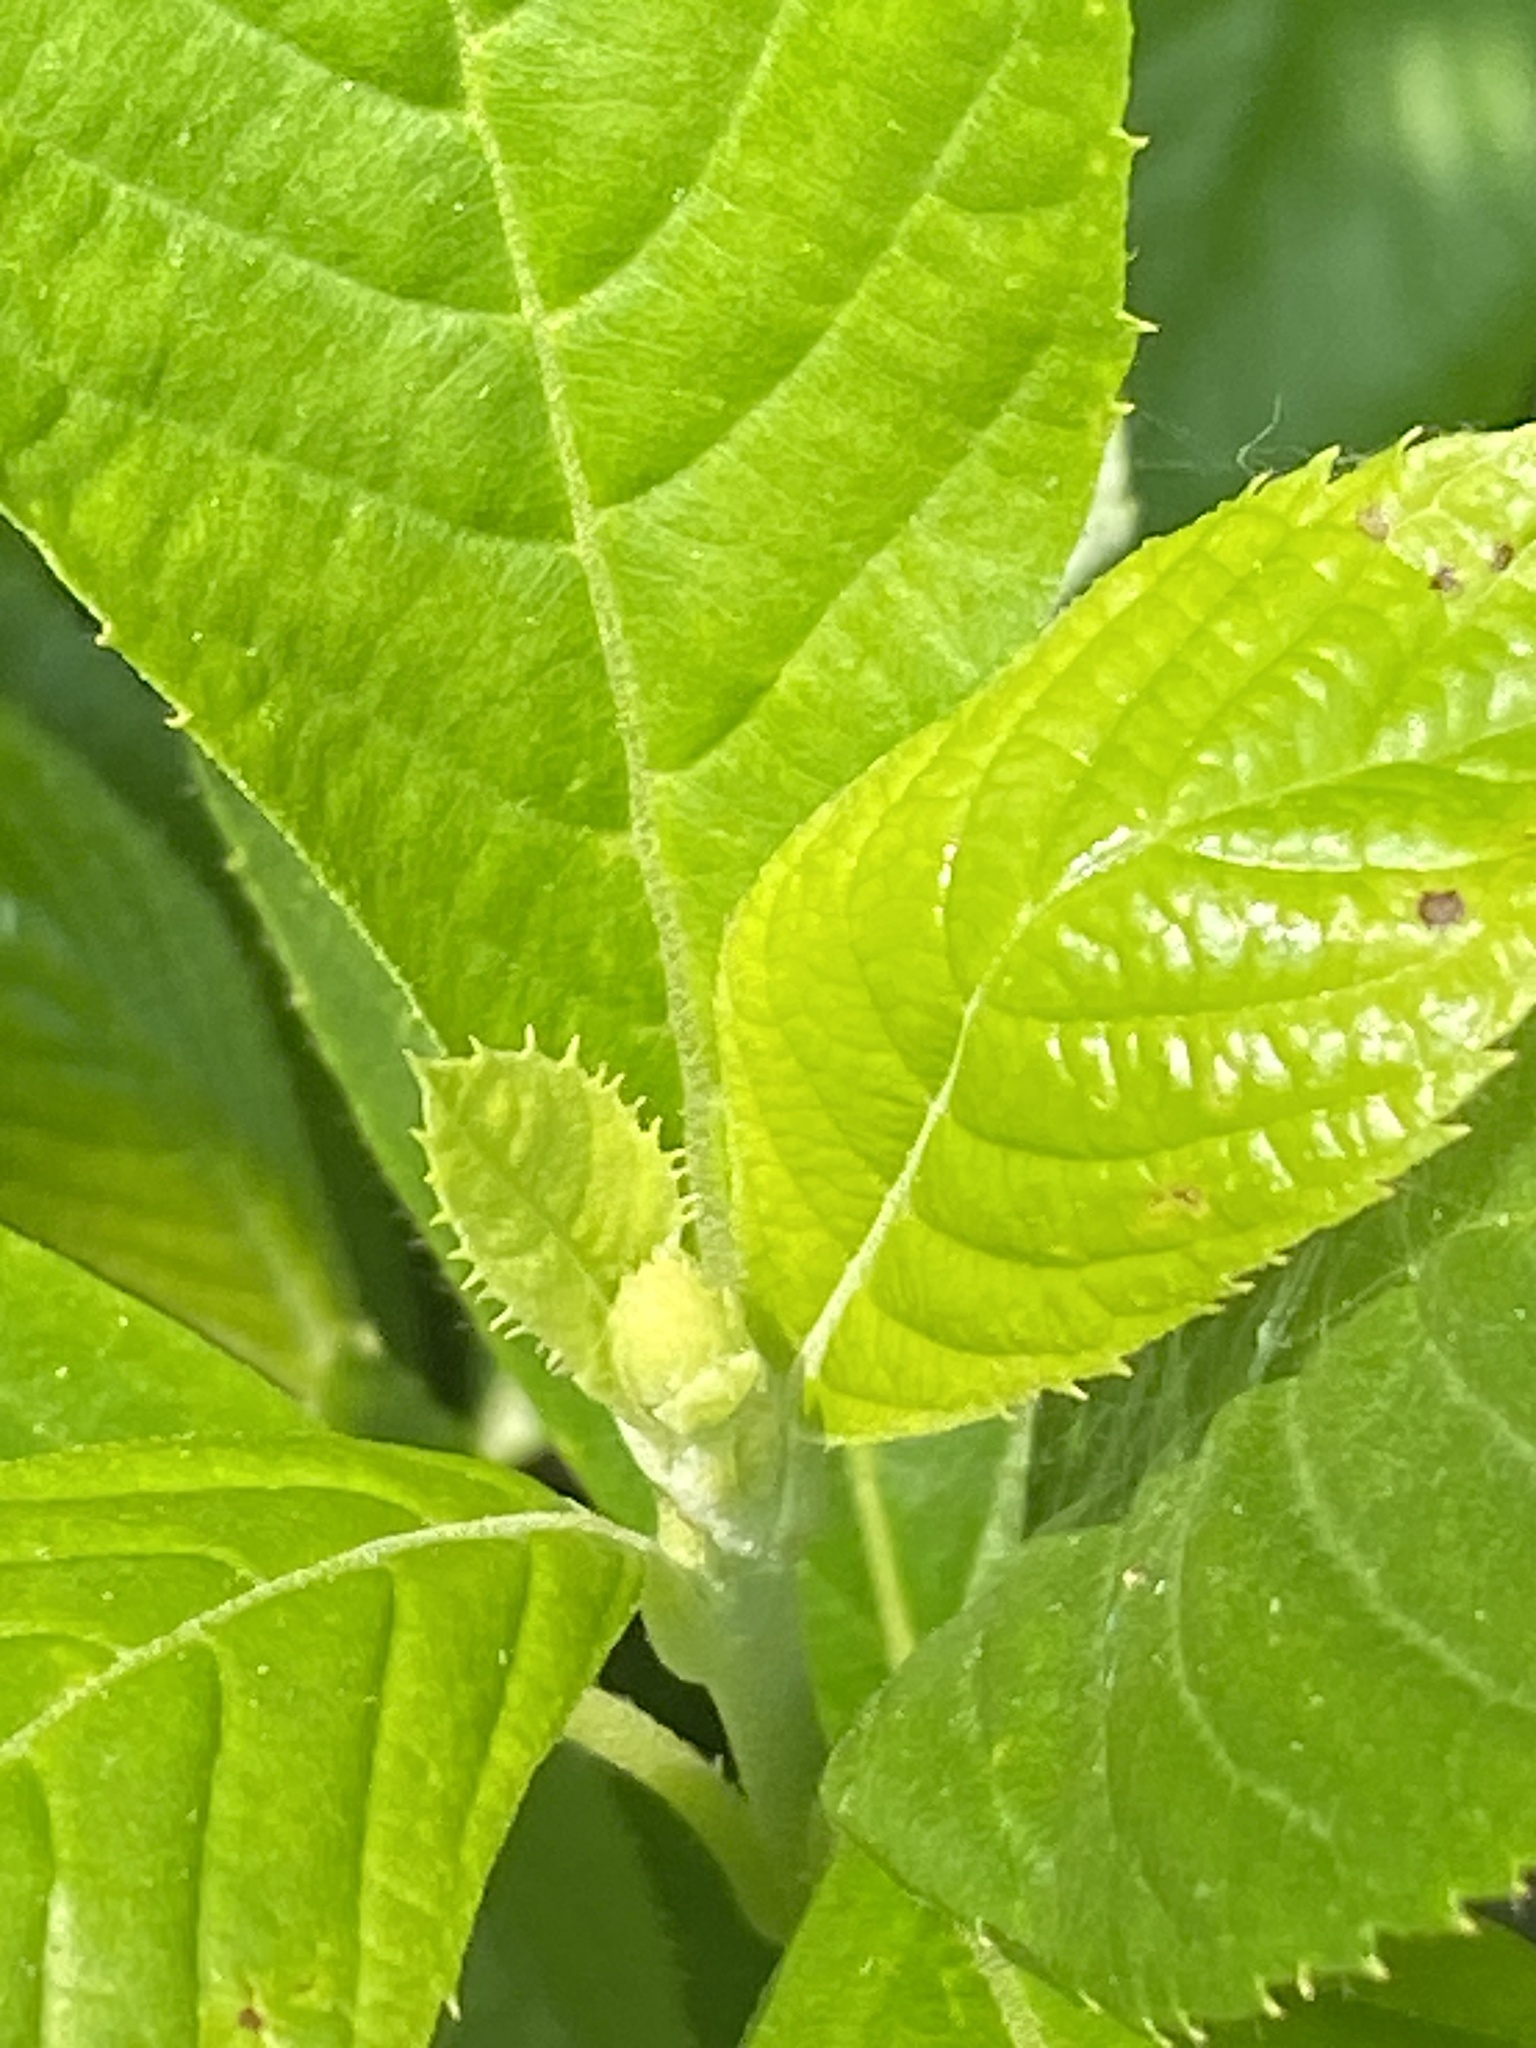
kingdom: Plantae
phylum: Tracheophyta
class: Magnoliopsida
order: Ericales
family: Clethraceae
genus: Clethra
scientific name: Clethra alnifolia
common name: Sweet pepperbush
